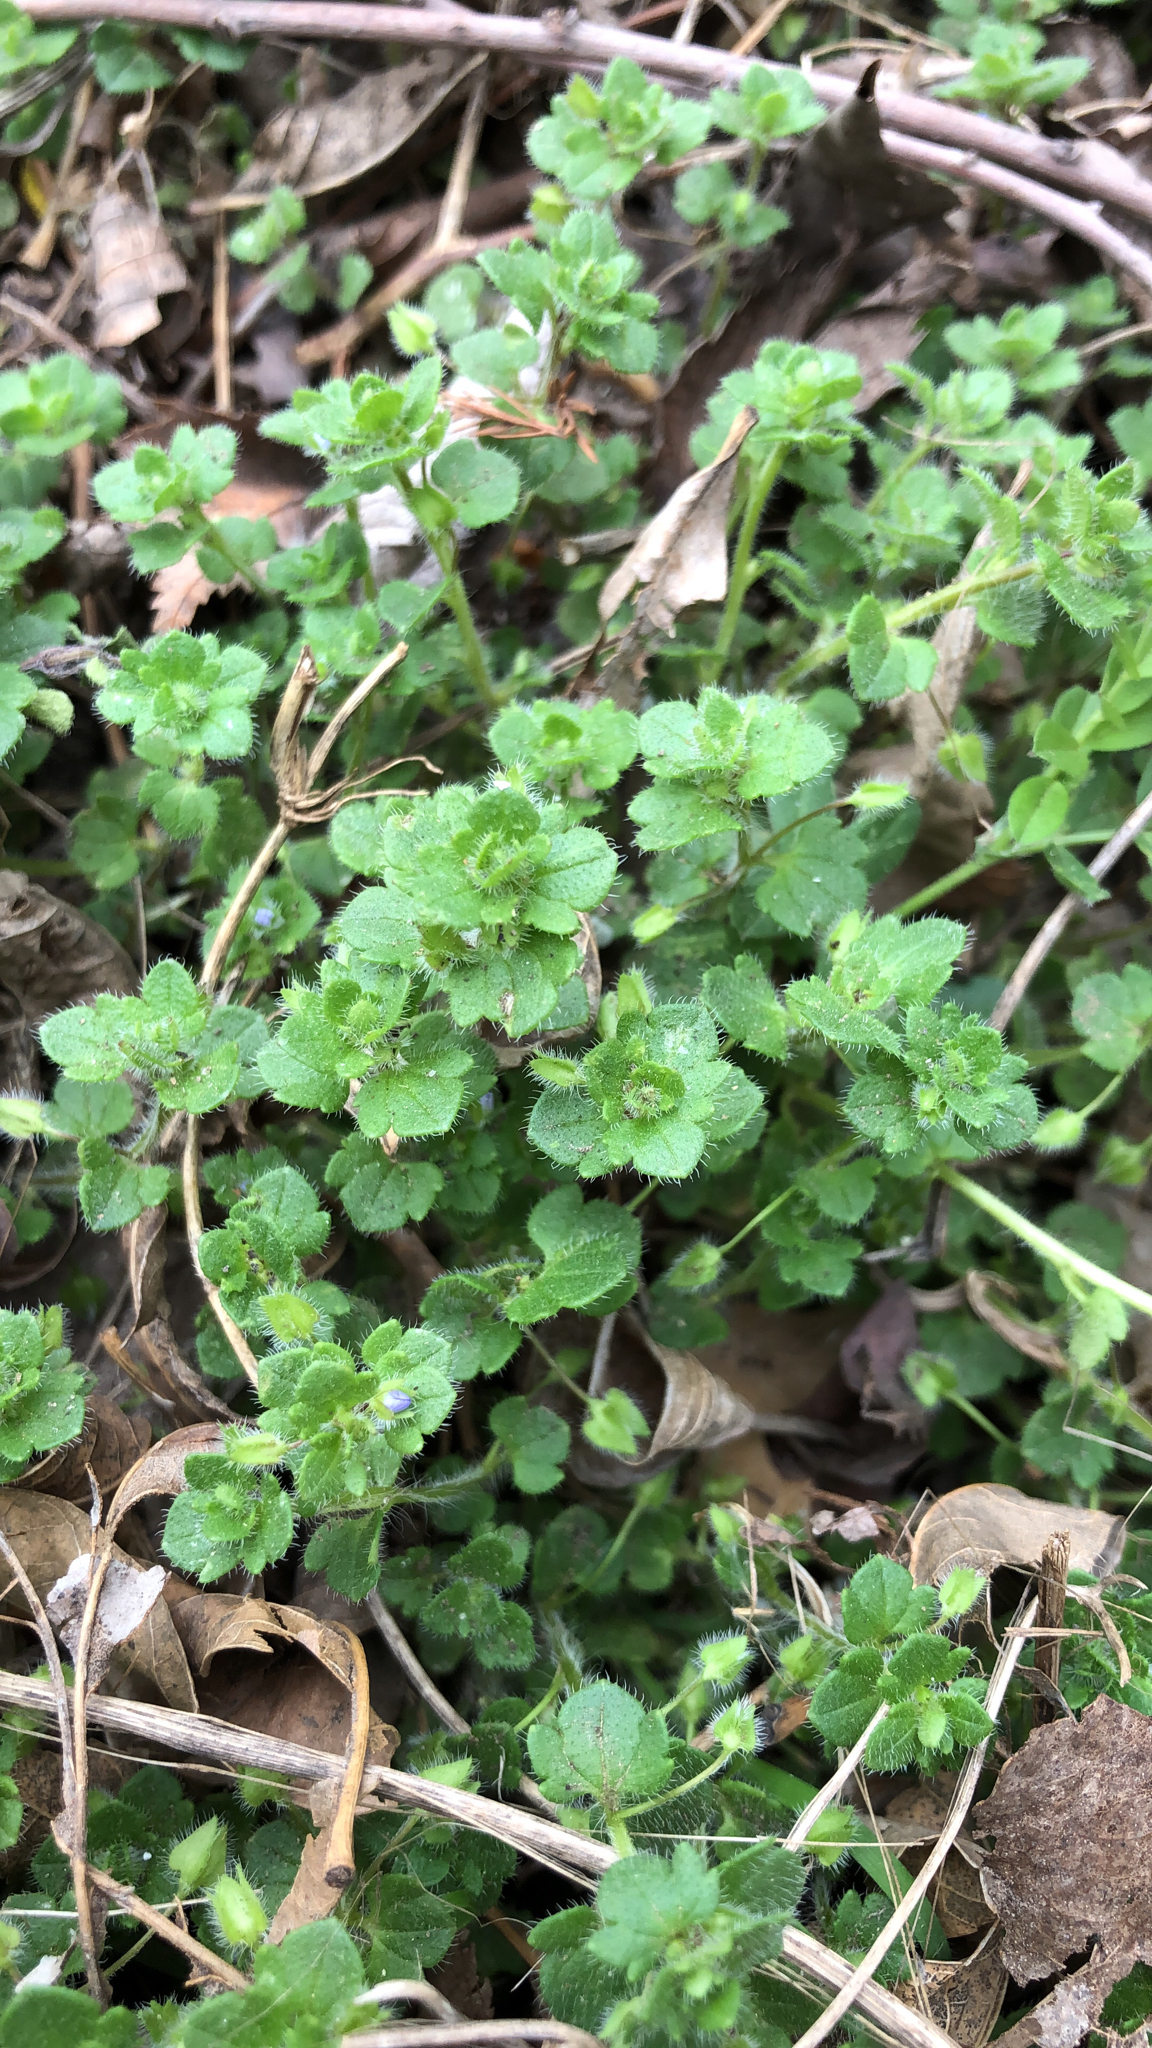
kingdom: Plantae
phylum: Tracheophyta
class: Magnoliopsida
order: Lamiales
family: Plantaginaceae
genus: Veronica
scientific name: Veronica hederifolia
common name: Ivy-leaved speedwell
